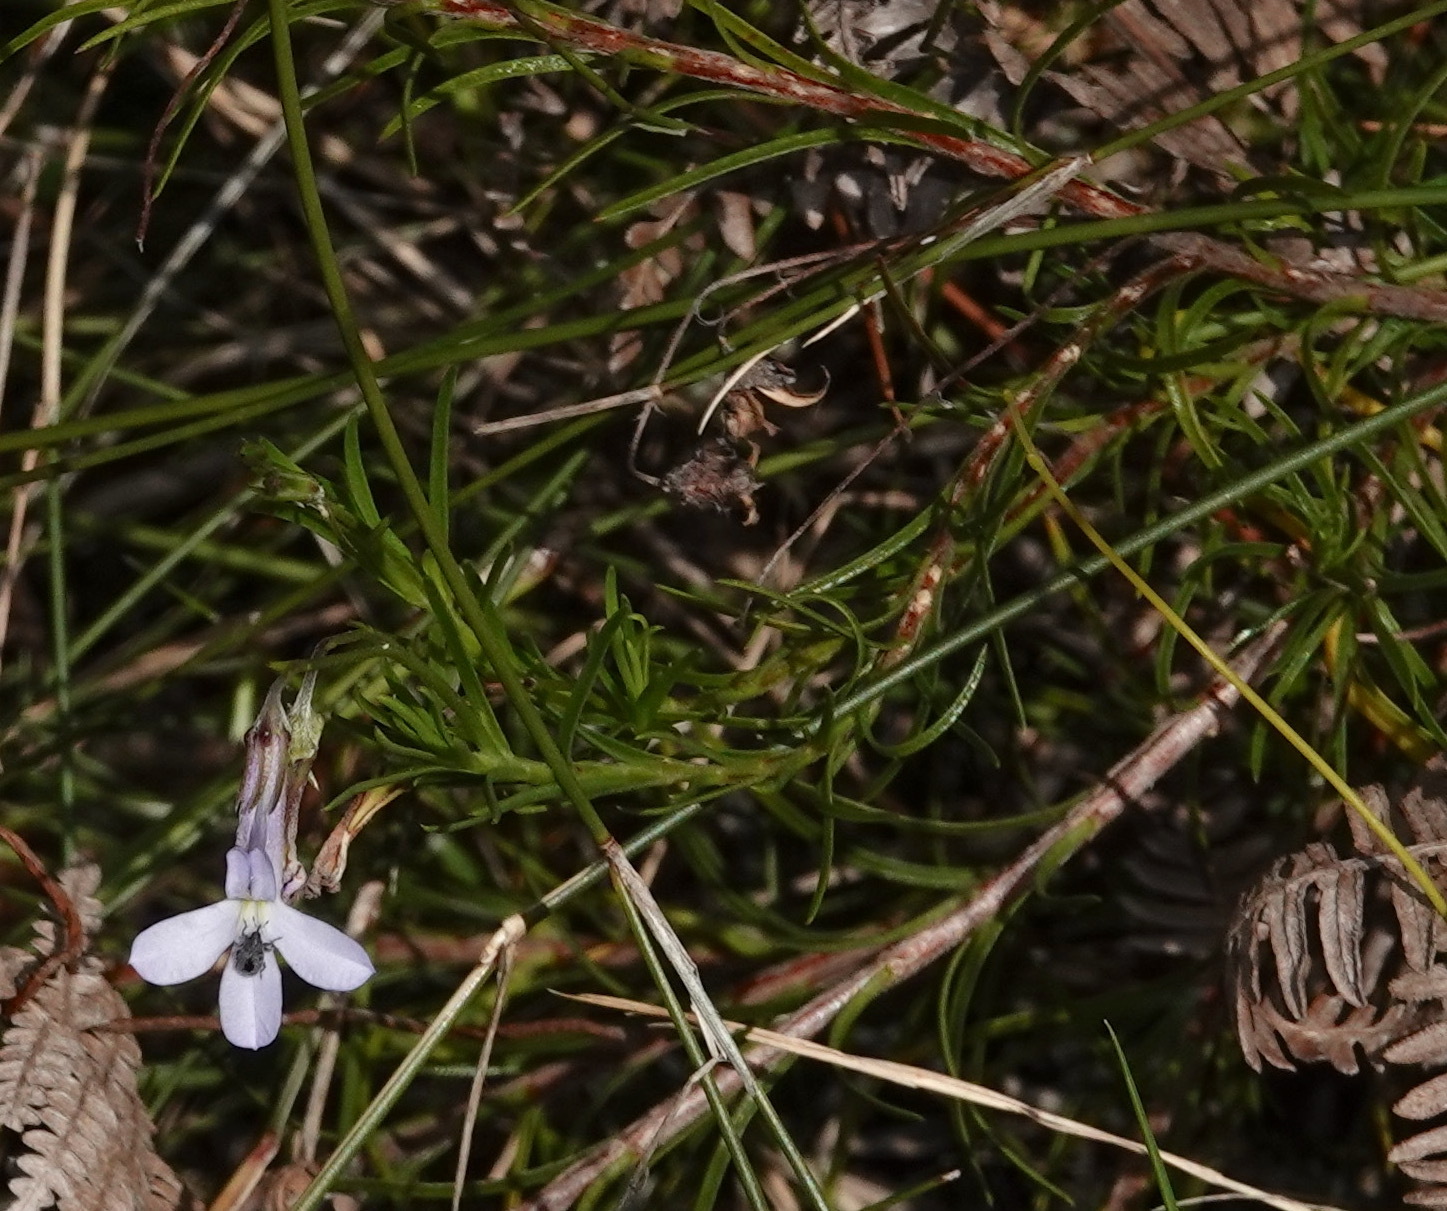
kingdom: Plantae
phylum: Tracheophyta
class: Magnoliopsida
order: Asterales
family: Campanulaceae
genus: Lobelia
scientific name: Lobelia pinifolia
